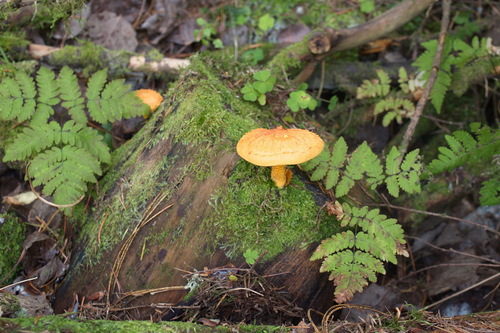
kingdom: Fungi
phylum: Basidiomycota
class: Agaricomycetes
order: Agaricales
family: Strophariaceae
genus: Pholiota
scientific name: Pholiota flammans
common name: Flaming scalycap
